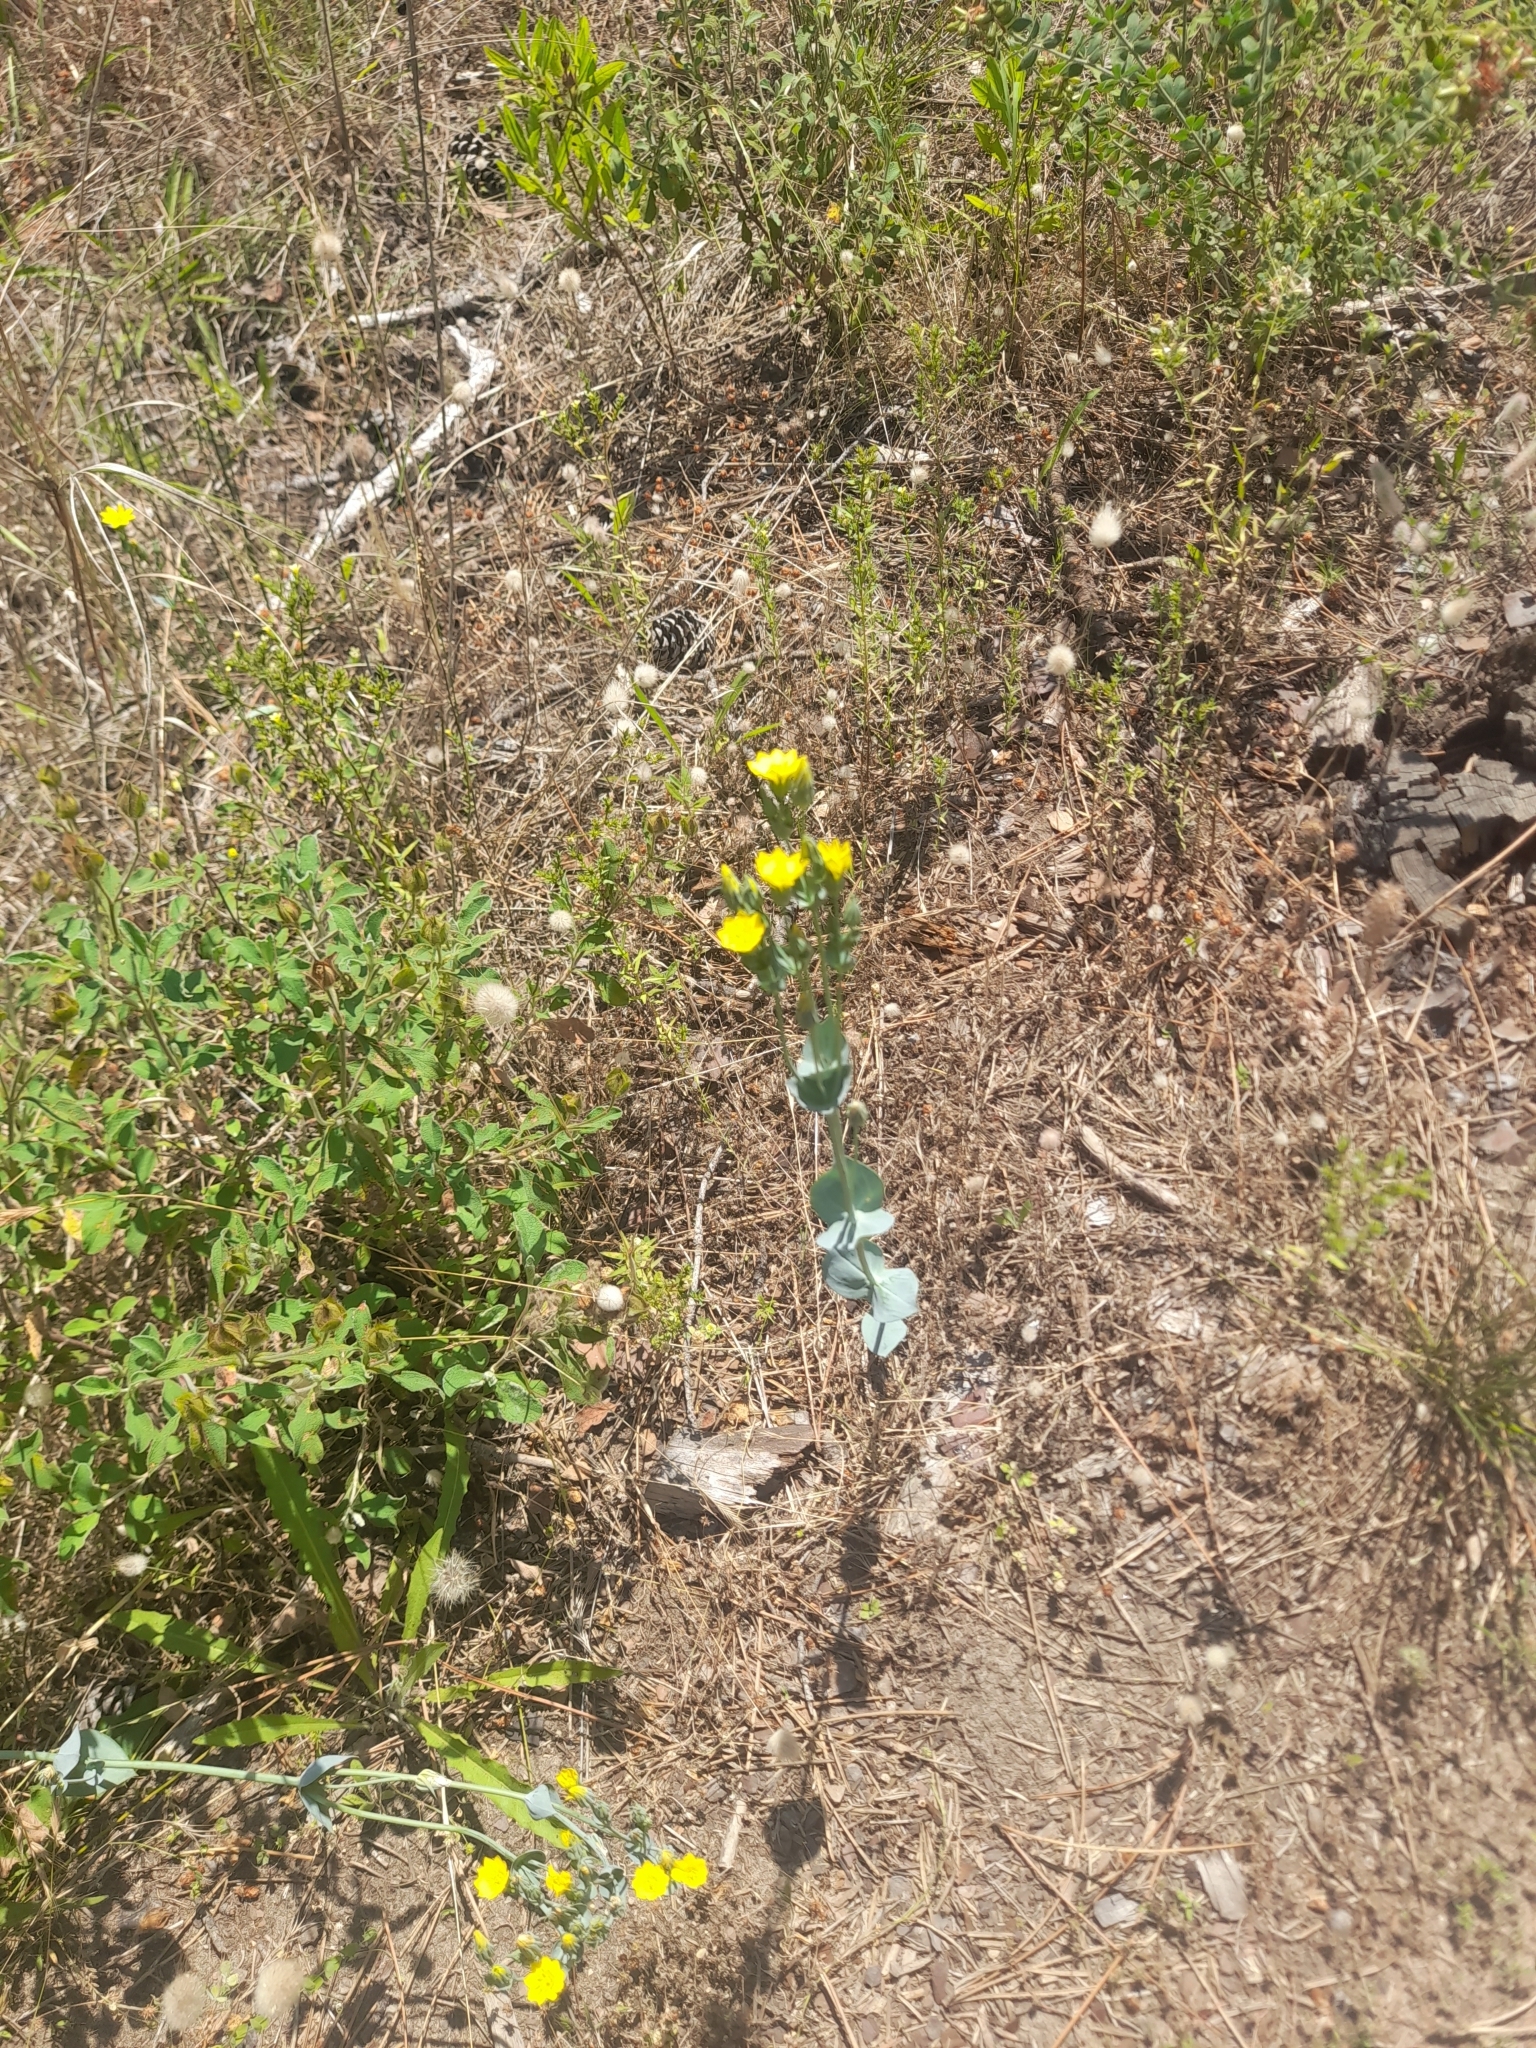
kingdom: Plantae
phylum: Tracheophyta
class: Magnoliopsida
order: Gentianales
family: Gentianaceae
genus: Blackstonia
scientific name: Blackstonia acuminata
